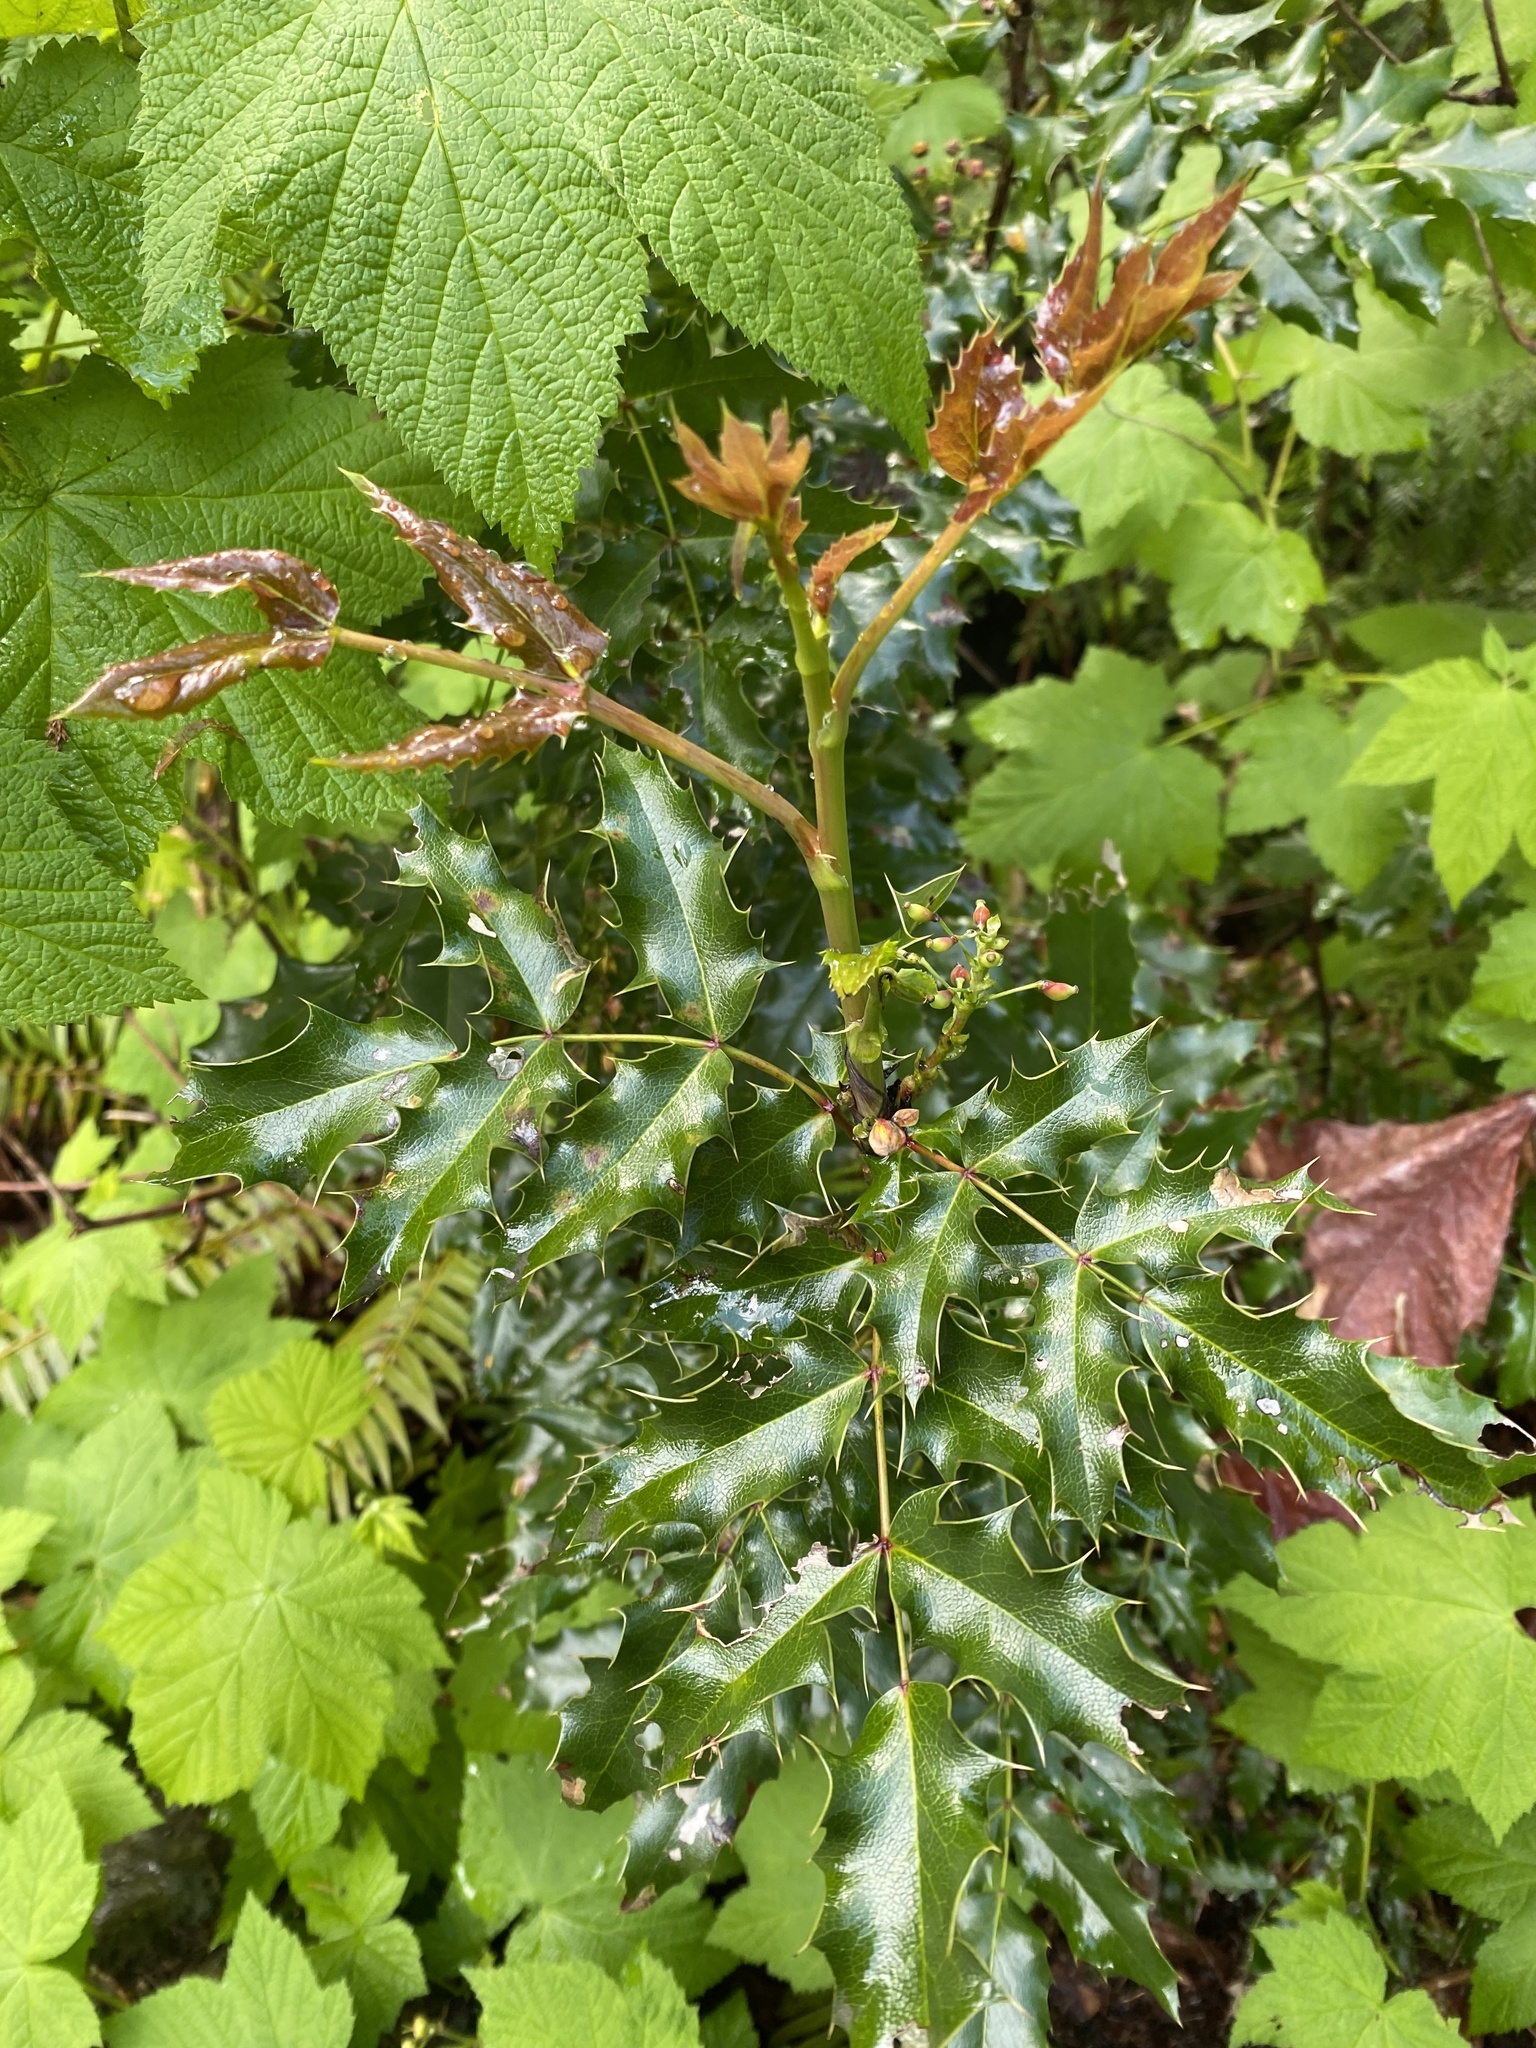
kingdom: Plantae
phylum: Tracheophyta
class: Magnoliopsida
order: Ranunculales
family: Berberidaceae
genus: Mahonia
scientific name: Mahonia aquifolium
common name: Oregon-grape
